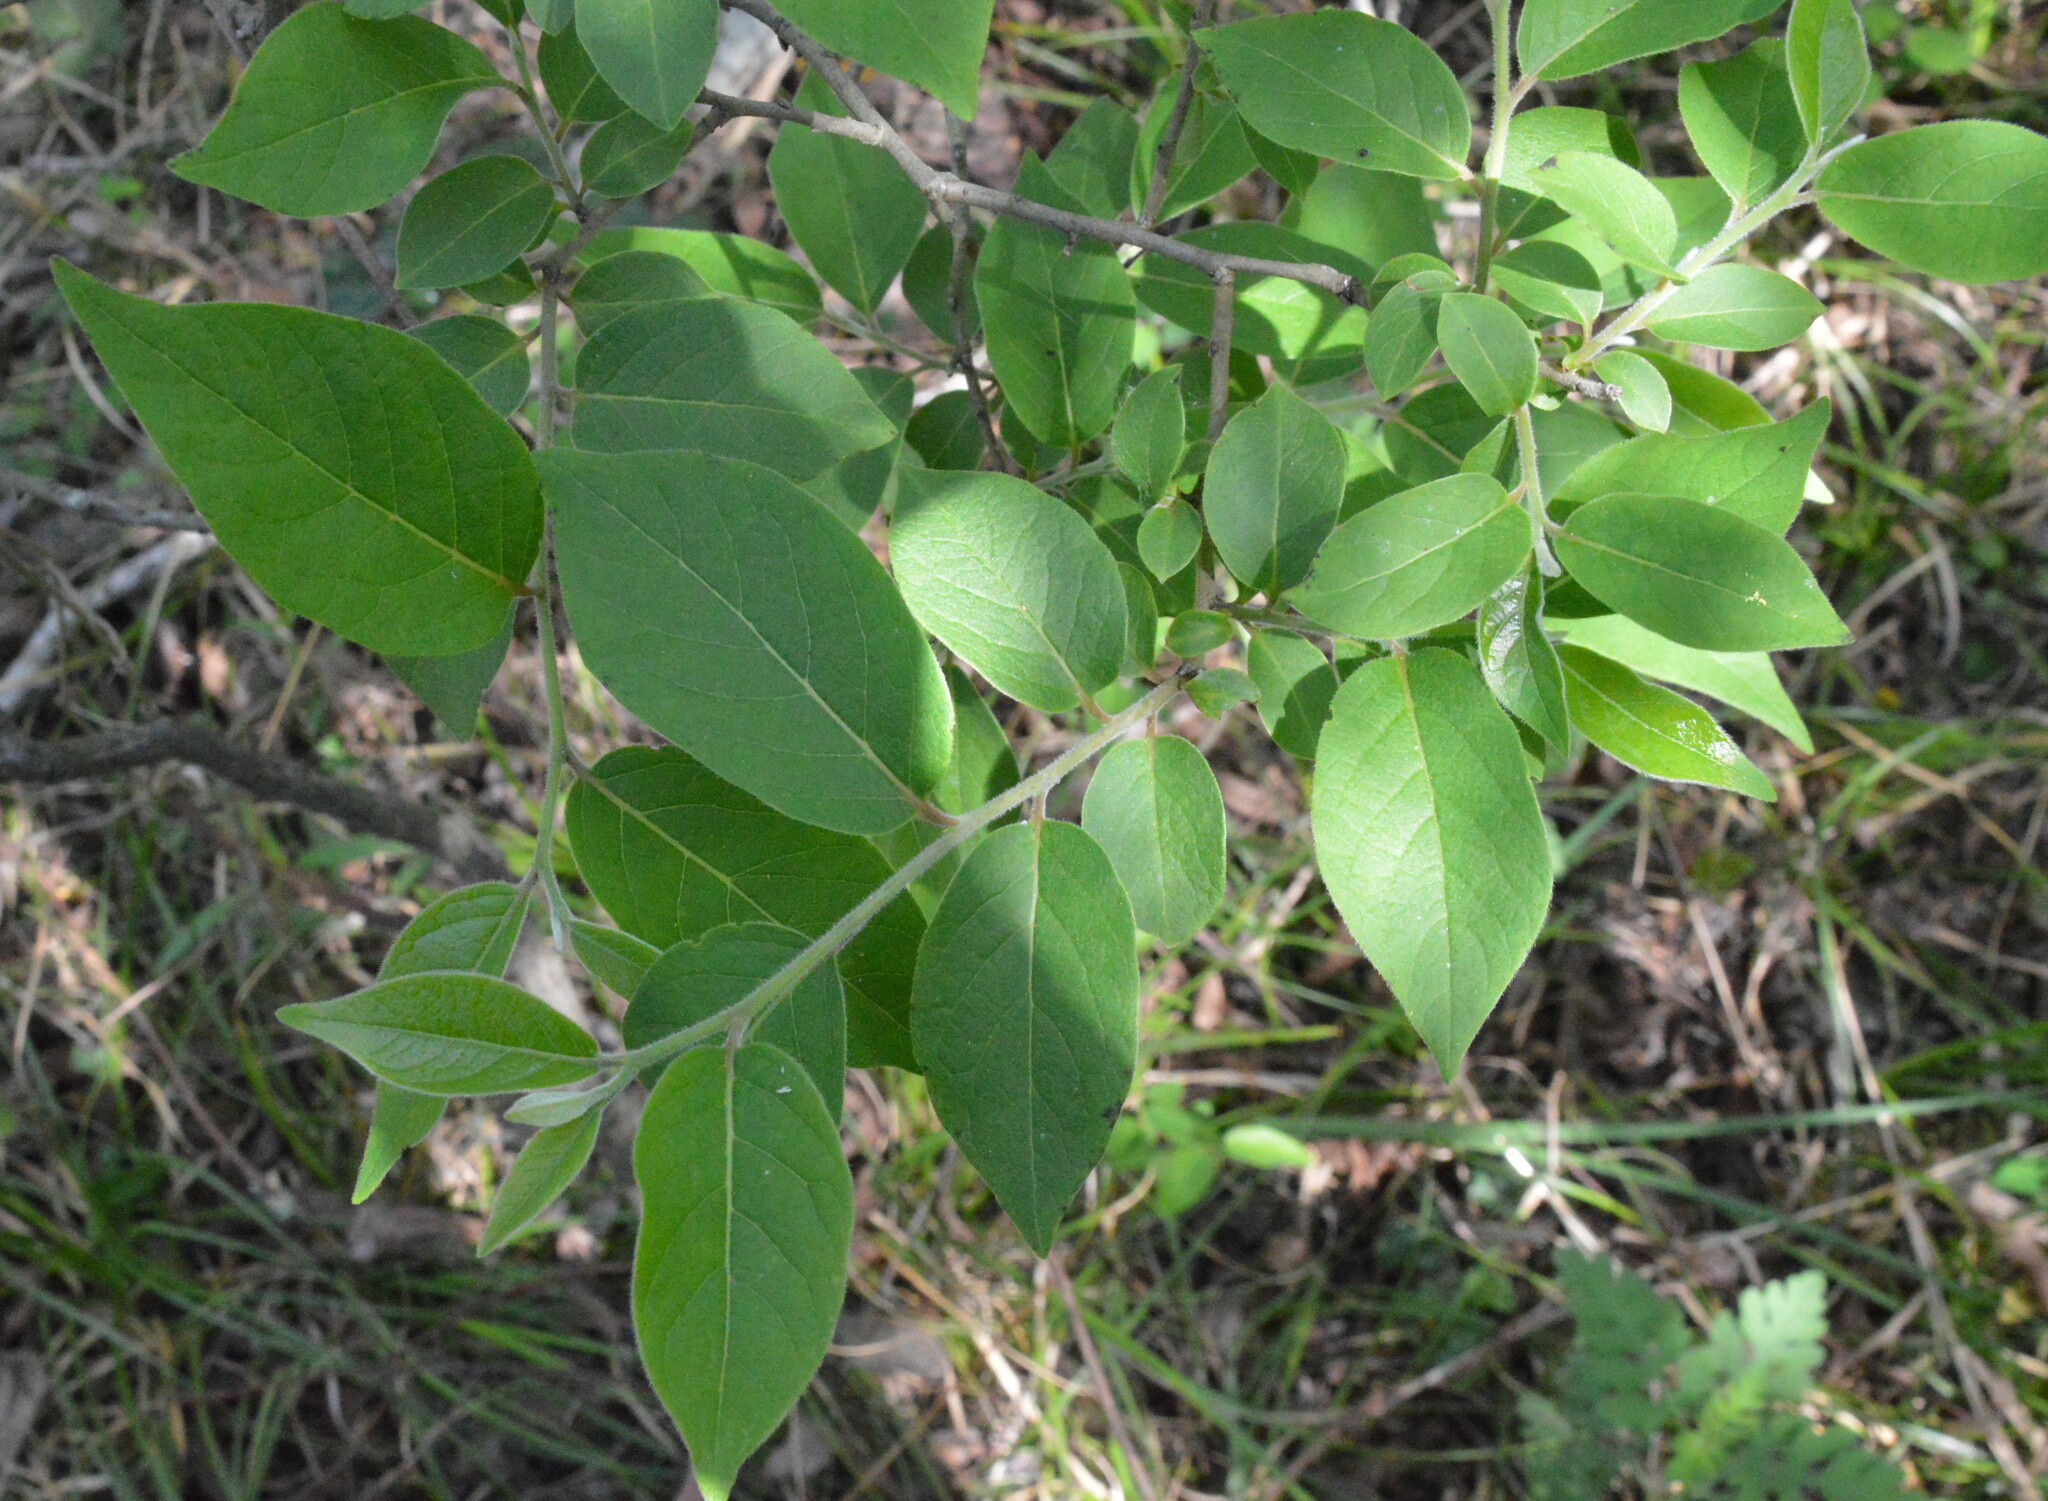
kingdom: Plantae
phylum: Tracheophyta
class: Magnoliopsida
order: Ericales
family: Ebenaceae
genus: Diospyros
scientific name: Diospyros virginiana
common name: Persimmon
